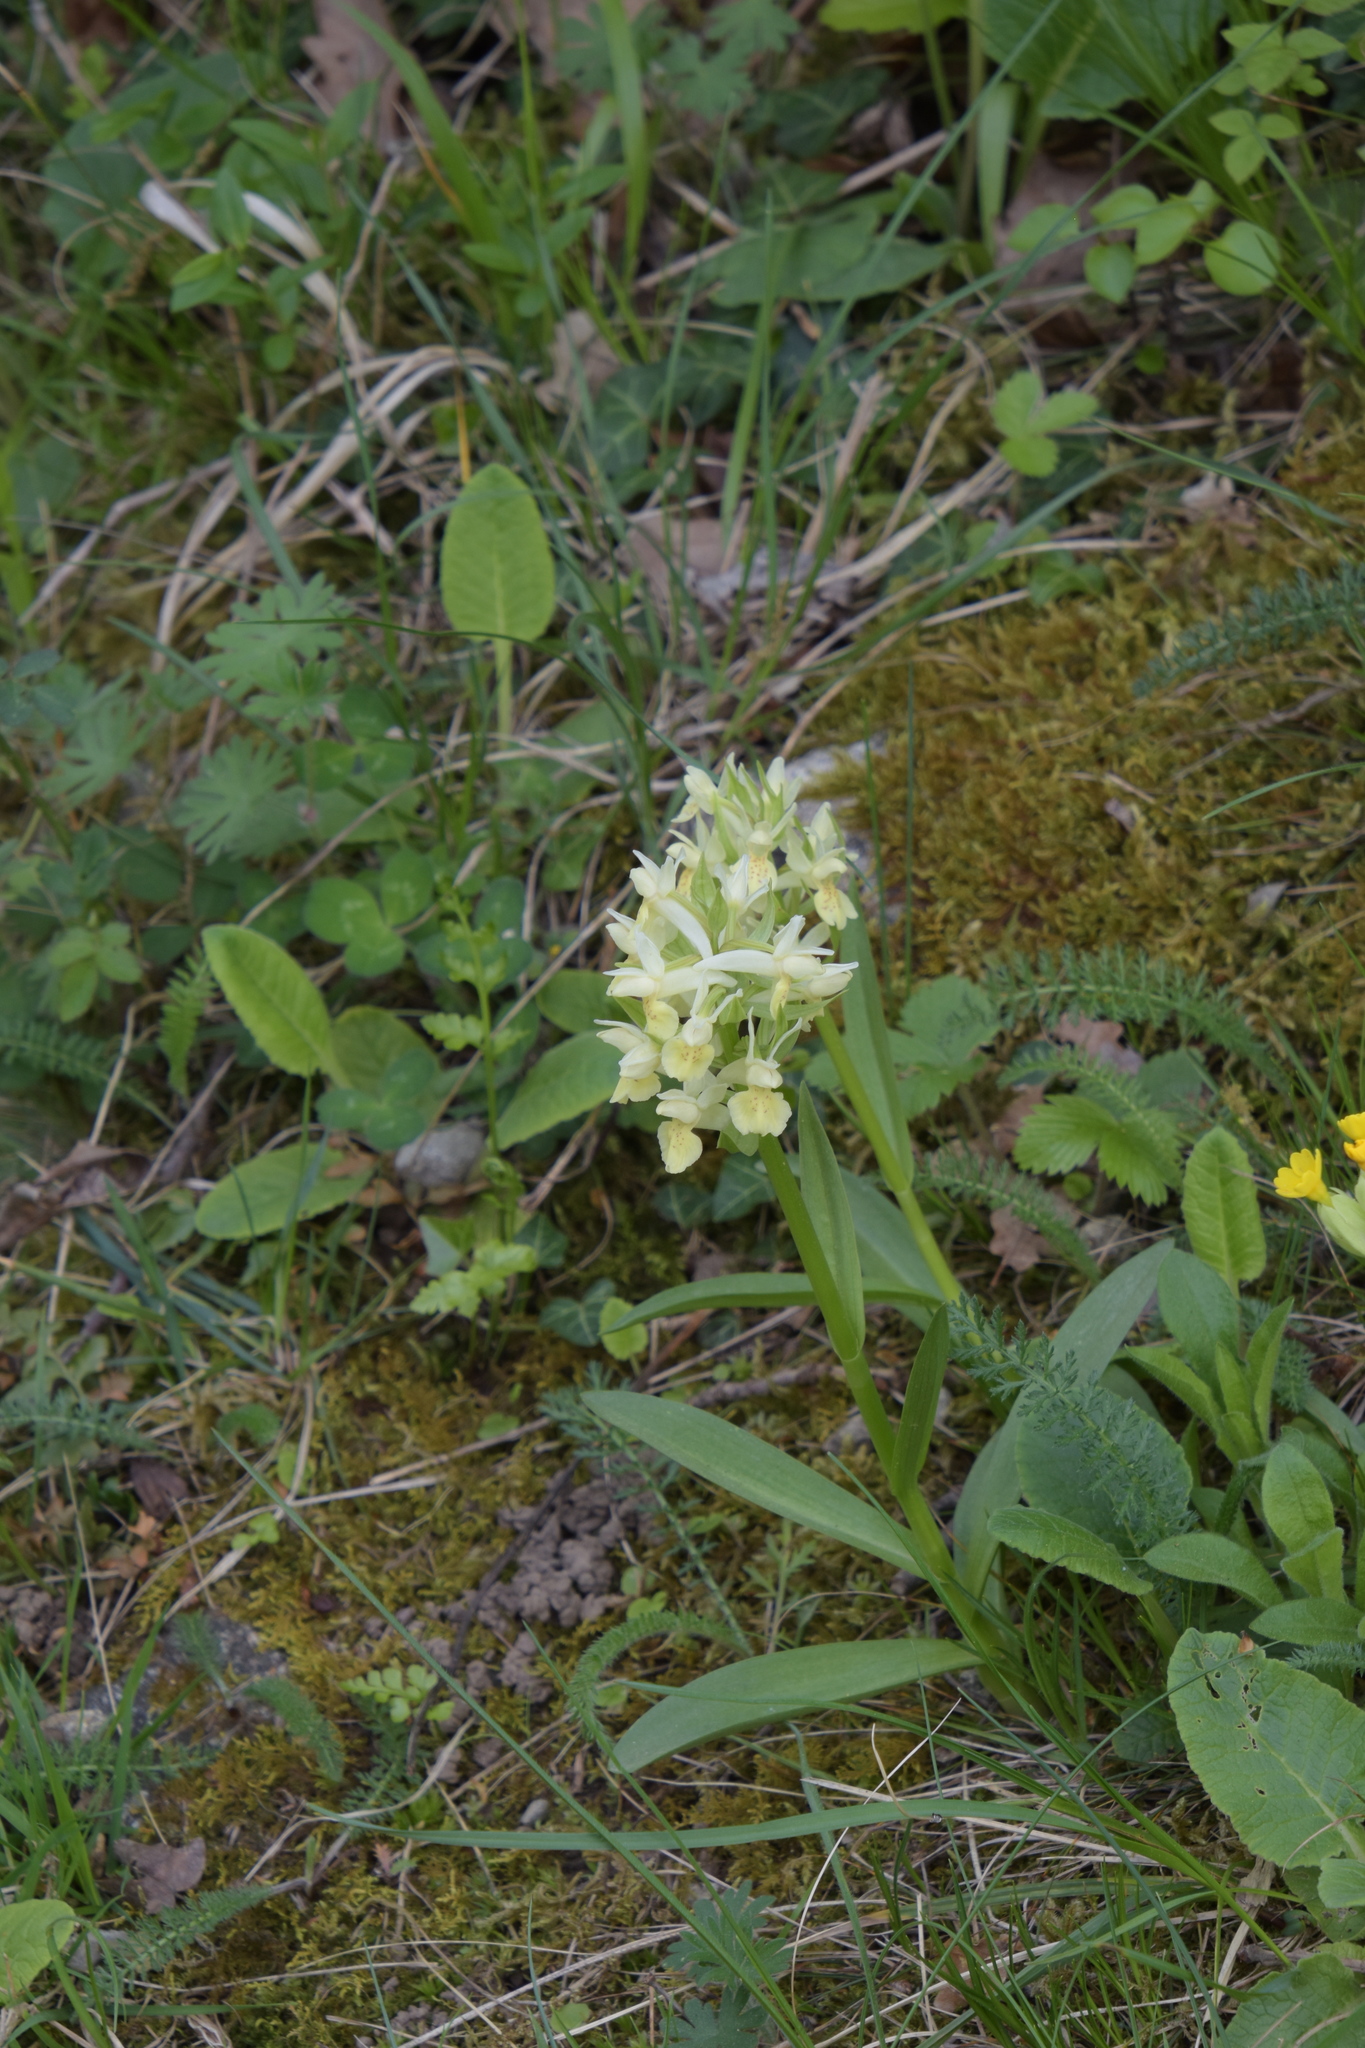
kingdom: Plantae
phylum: Tracheophyta
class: Liliopsida
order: Asparagales
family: Orchidaceae
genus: Dactylorhiza
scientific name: Dactylorhiza sambucina
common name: Elder-flowered orchid
